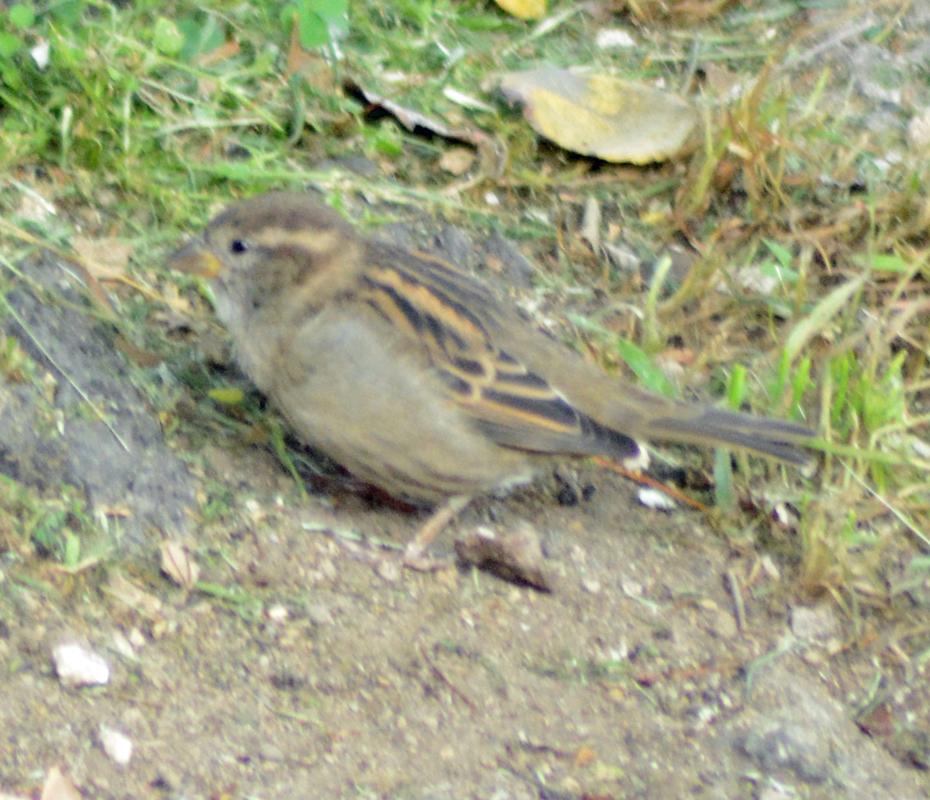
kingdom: Animalia
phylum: Chordata
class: Aves
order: Passeriformes
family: Passeridae
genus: Passer
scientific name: Passer domesticus
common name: House sparrow
